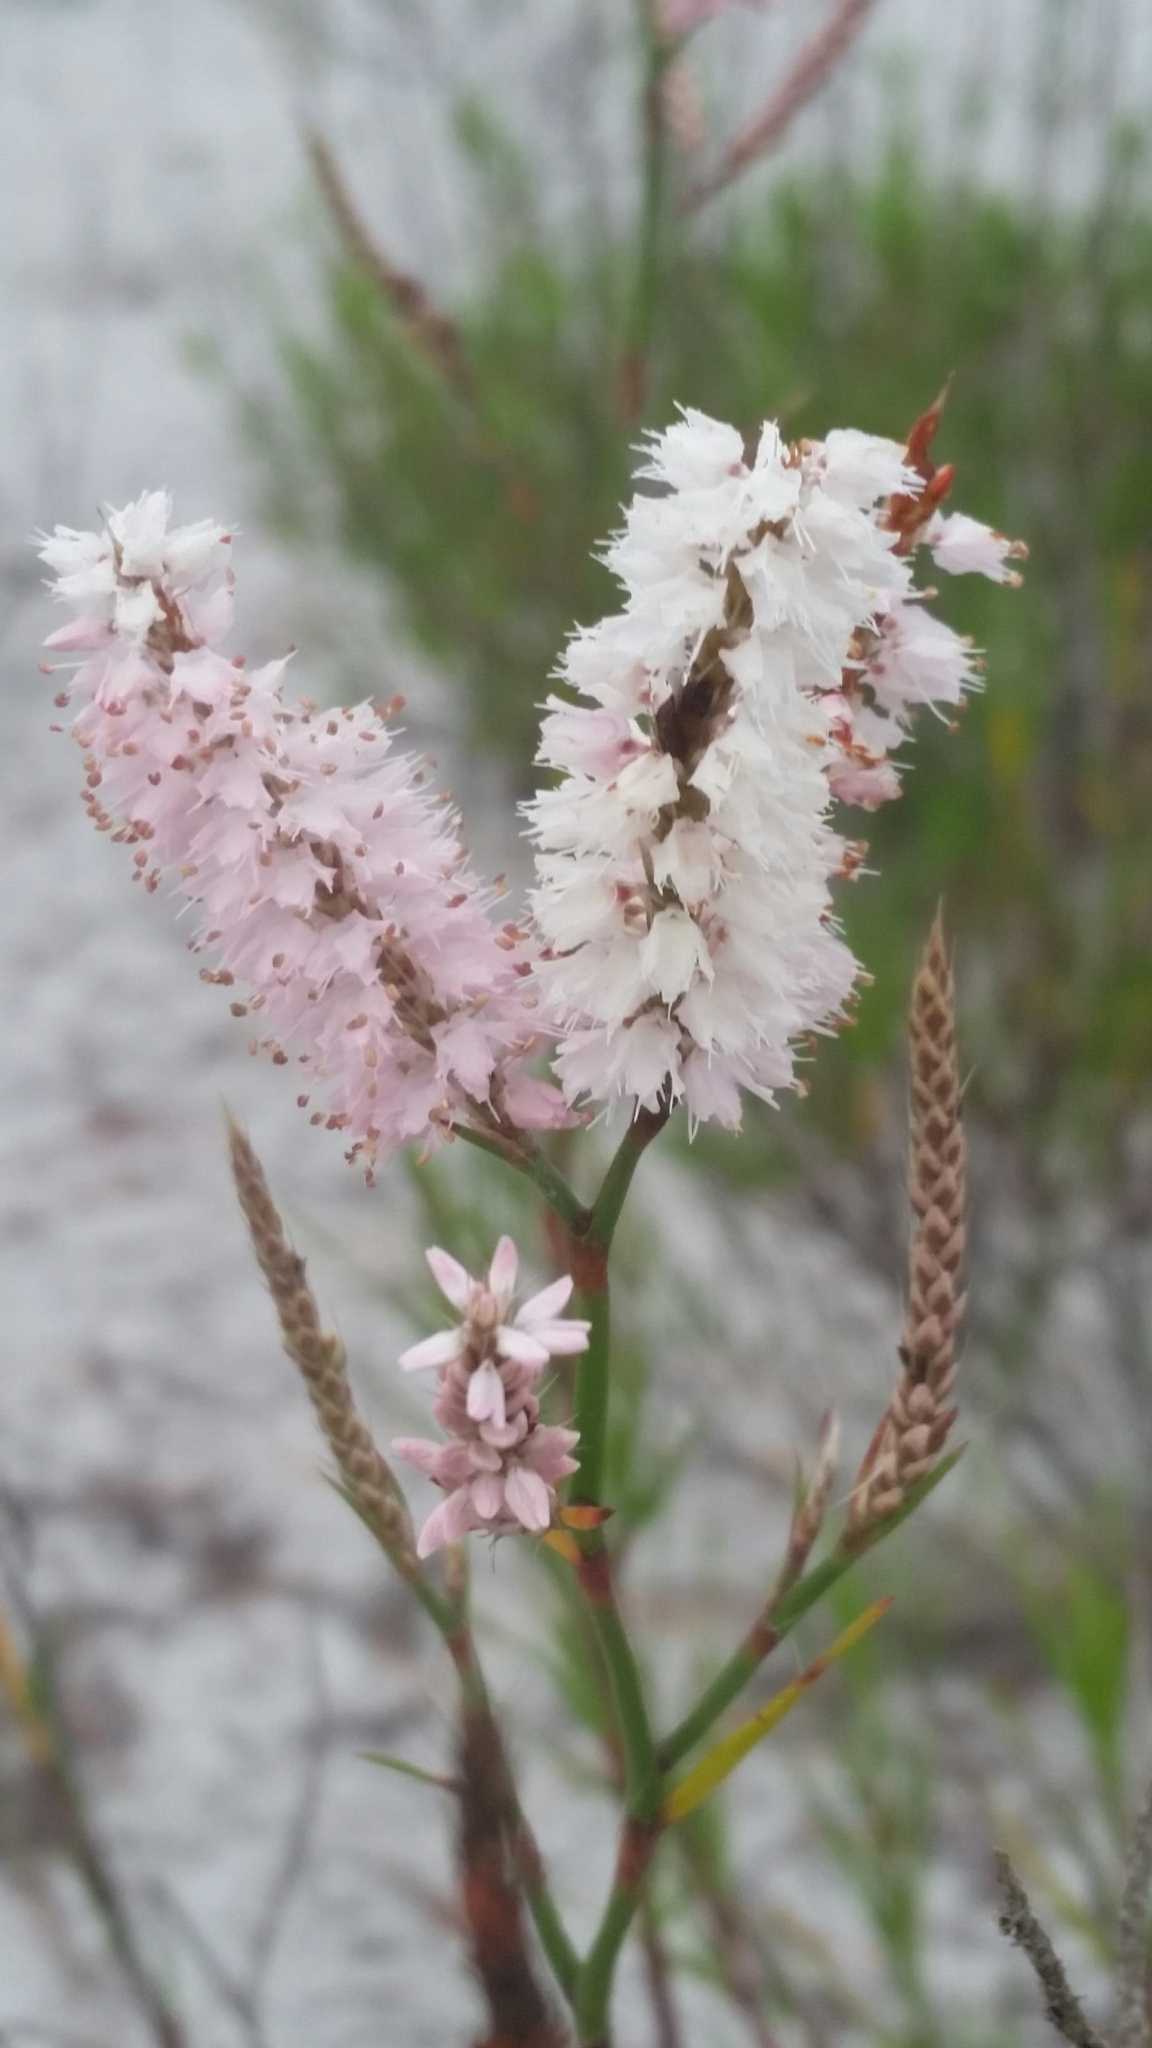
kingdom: Plantae
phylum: Tracheophyta
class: Magnoliopsida
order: Caryophyllales
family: Polygonaceae
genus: Polygonella
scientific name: Polygonella robusta
